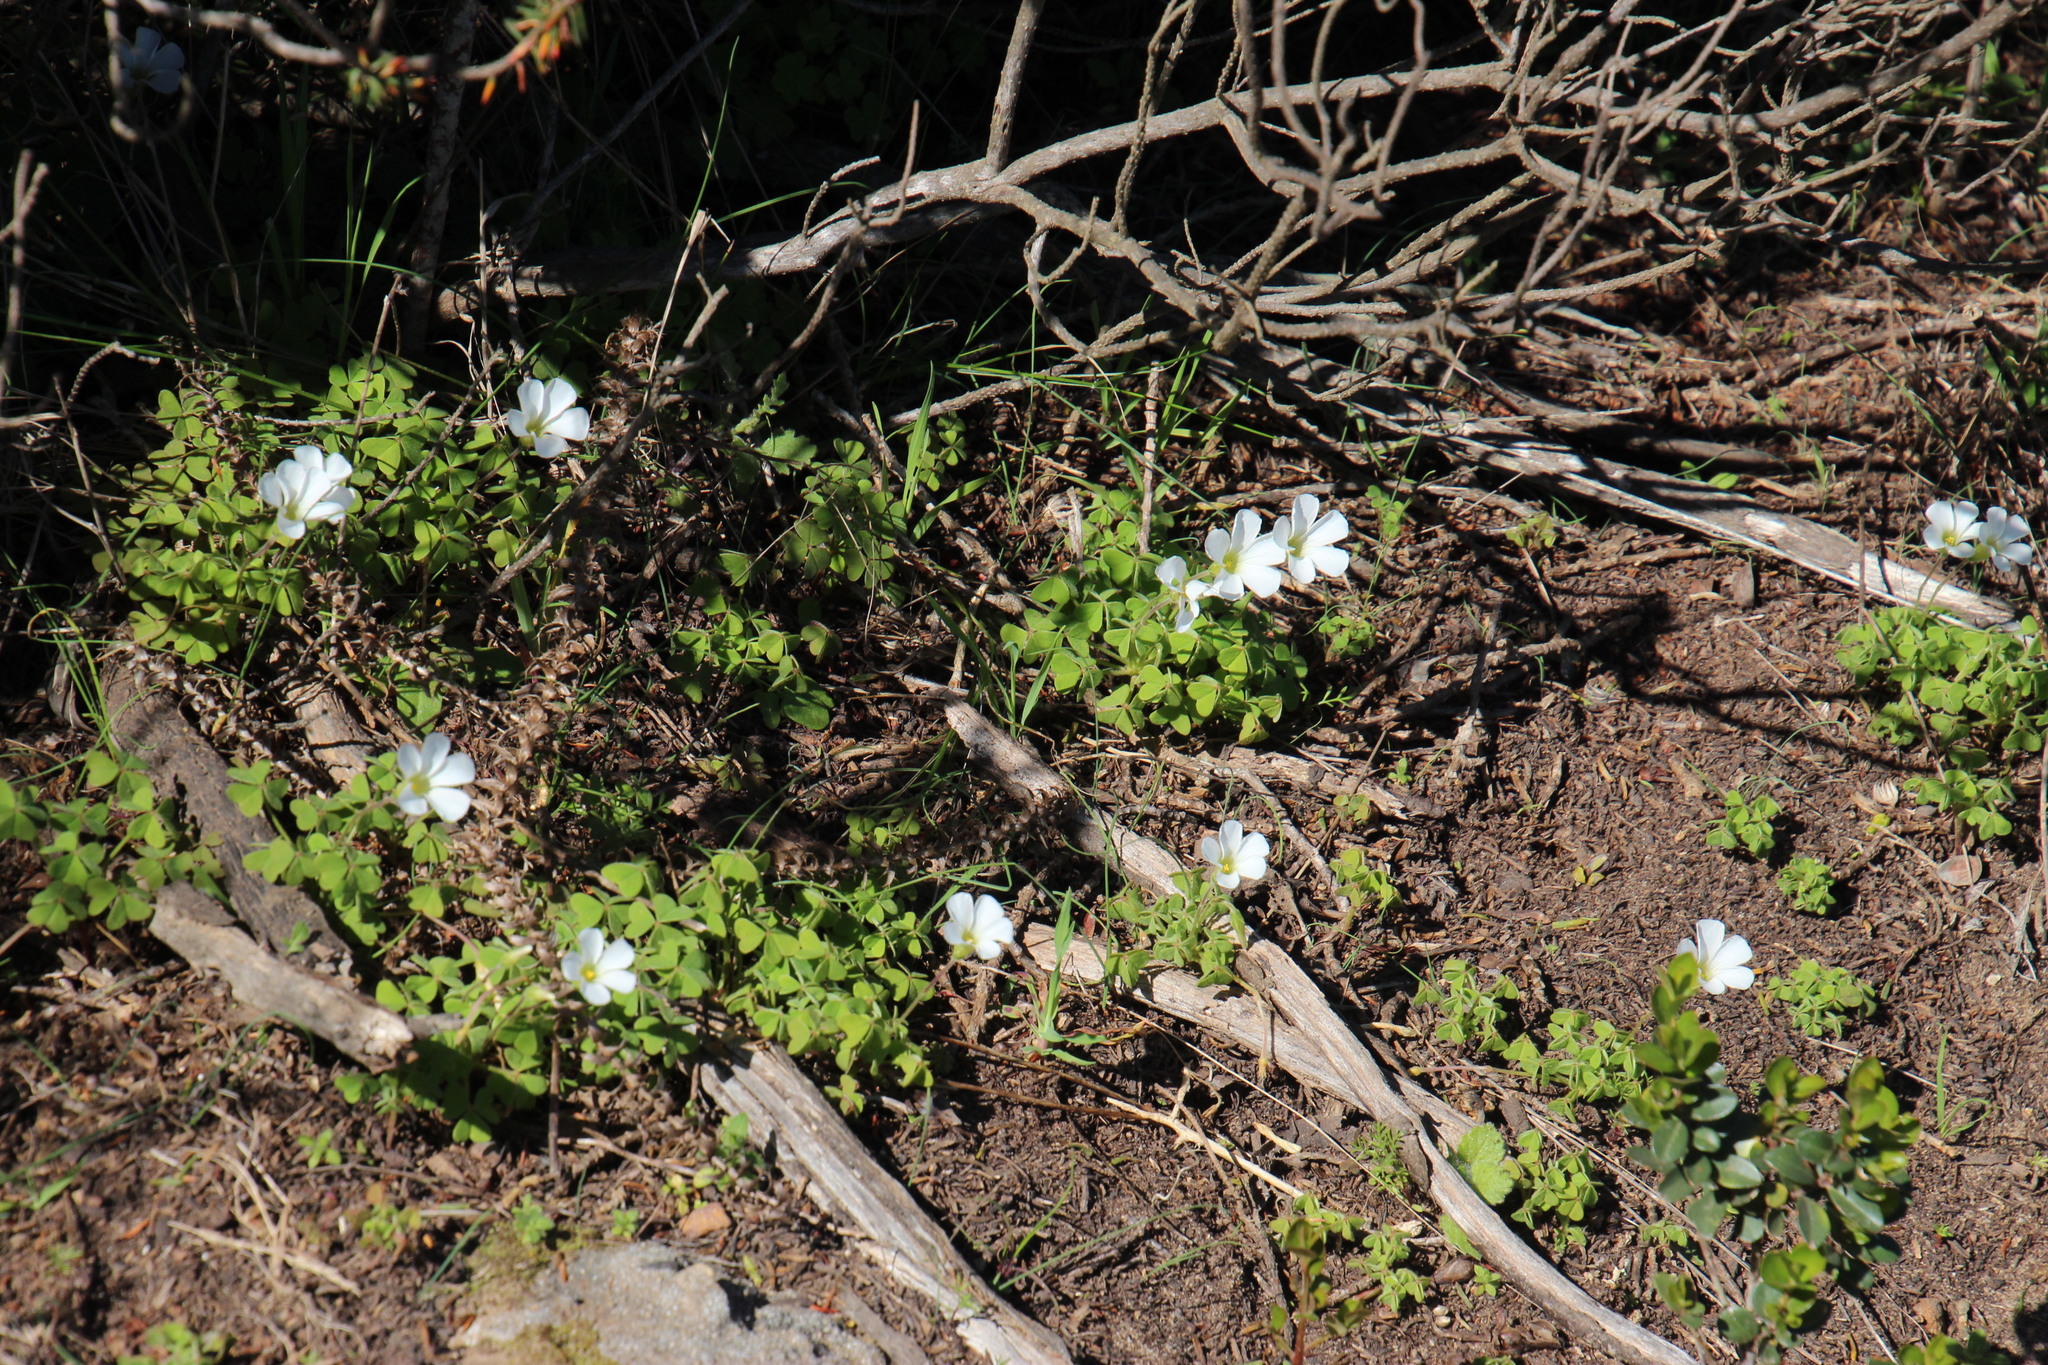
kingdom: Plantae
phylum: Tracheophyta
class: Magnoliopsida
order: Oxalidales
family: Oxalidaceae
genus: Oxalis
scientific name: Oxalis lanata
